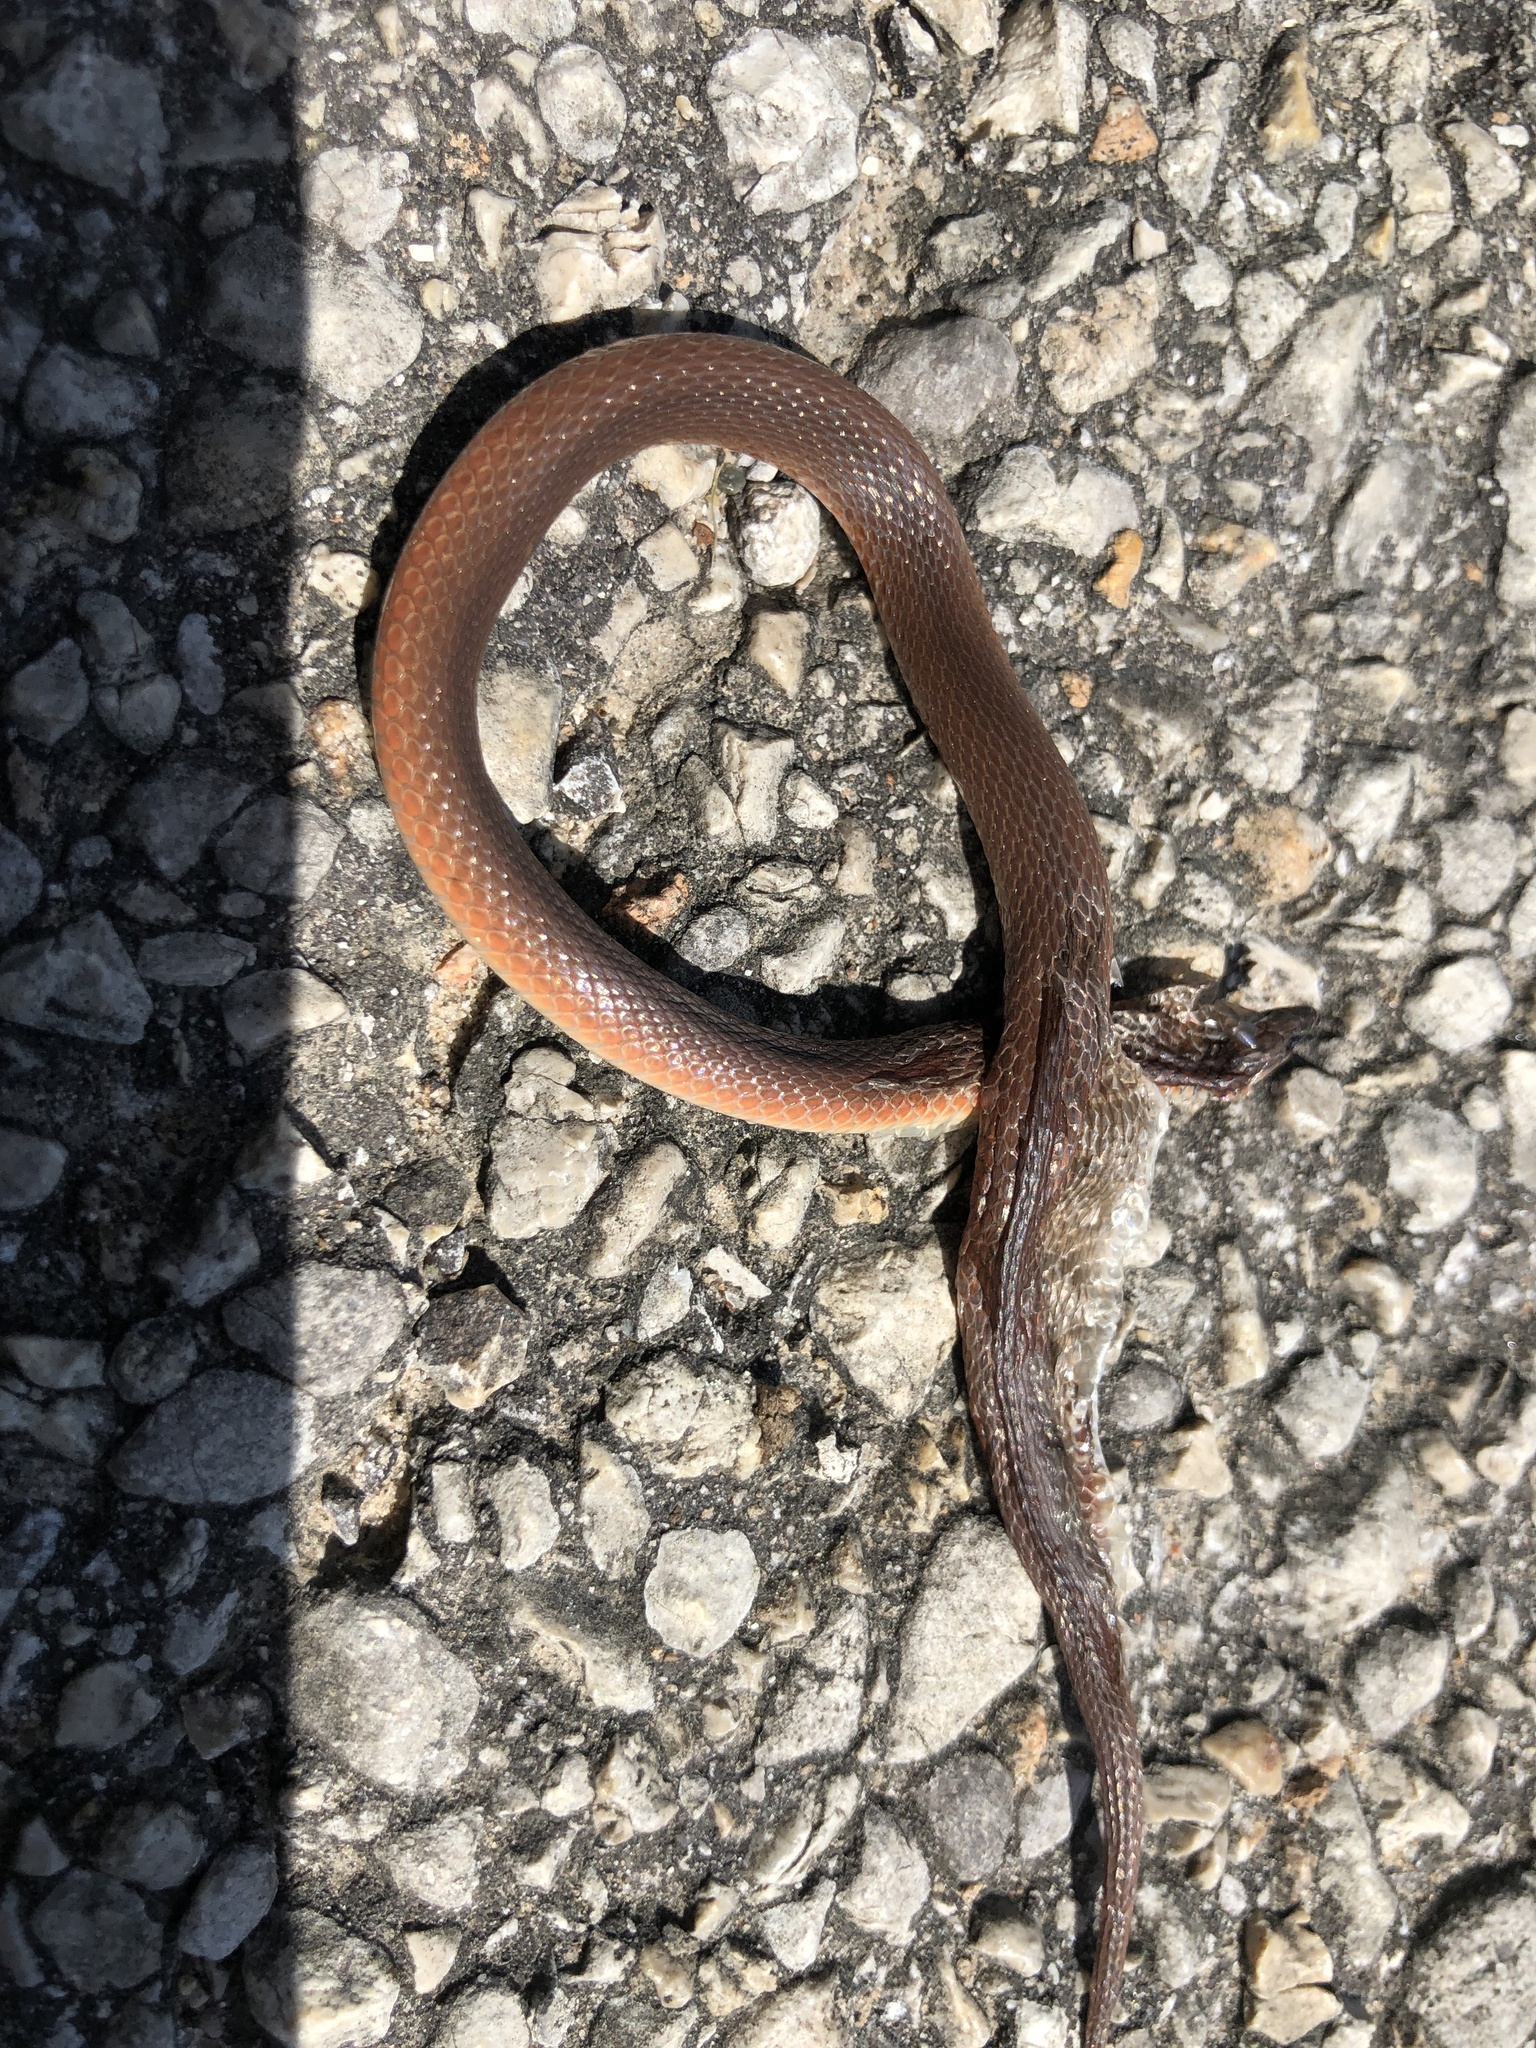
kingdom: Animalia
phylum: Chordata
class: Squamata
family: Colubridae
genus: Haldea
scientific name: Haldea striatula
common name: Rough earth snake
